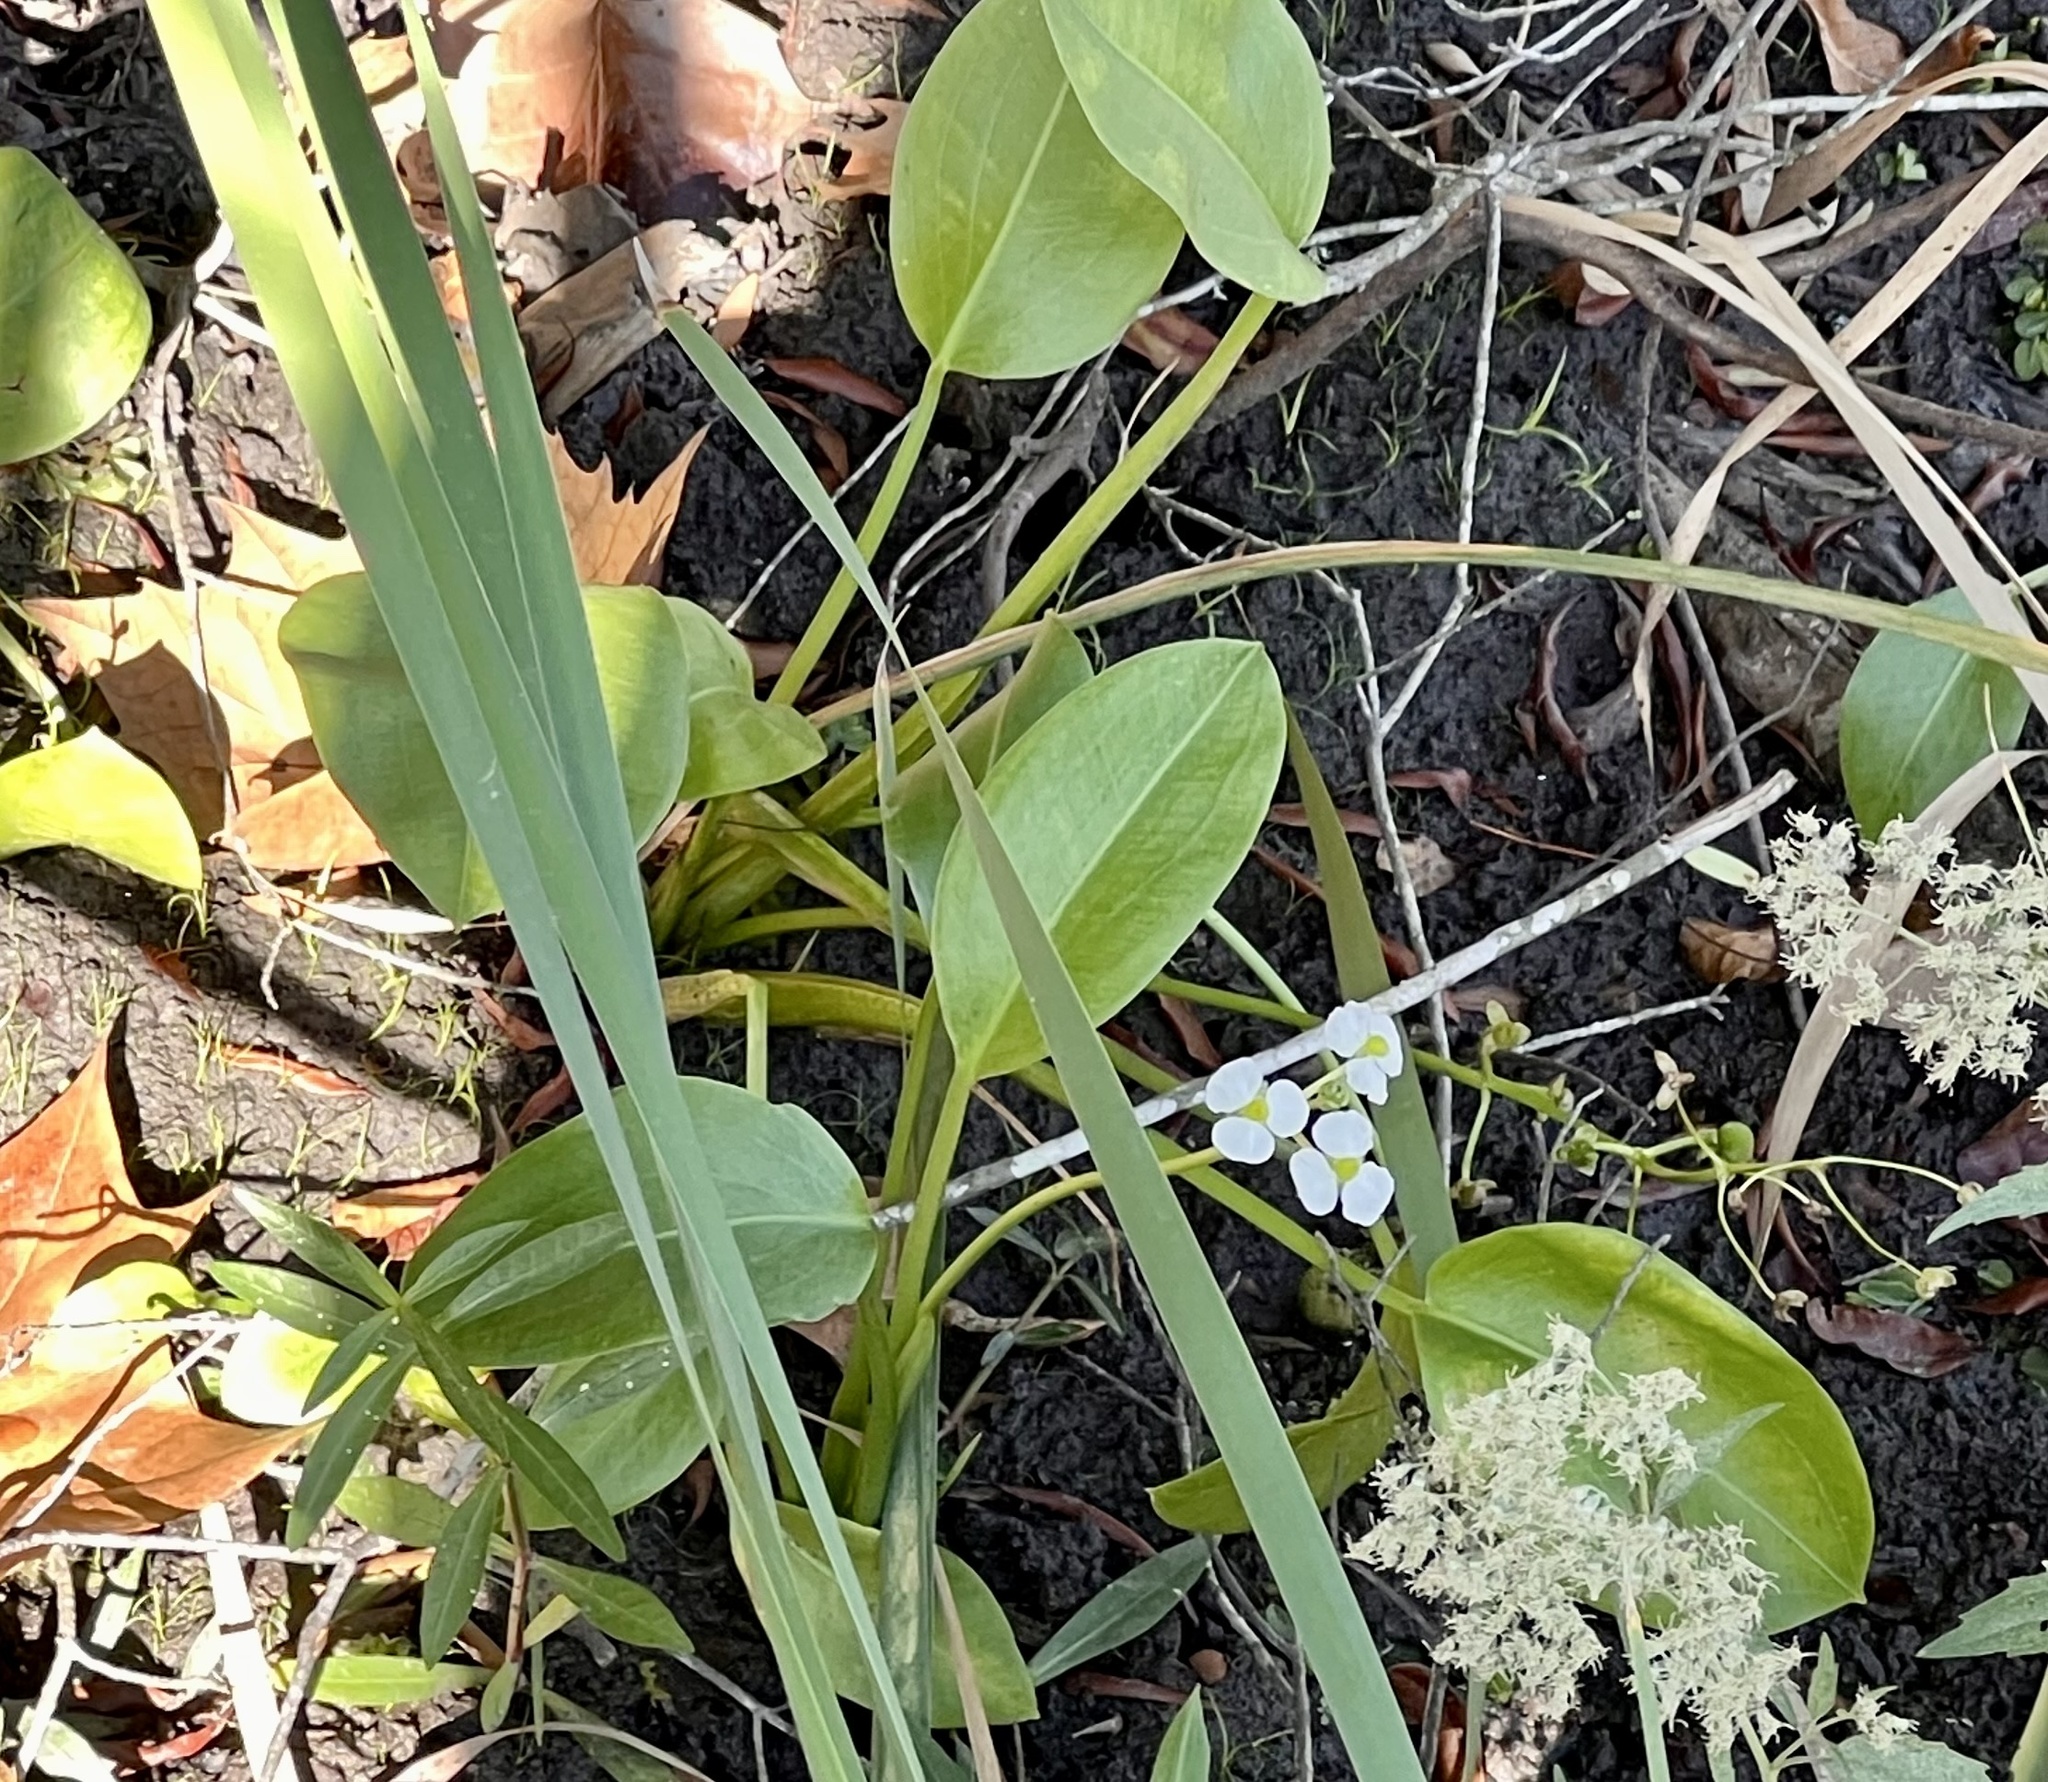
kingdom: Plantae
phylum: Tracheophyta
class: Liliopsida
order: Alismatales
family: Alismataceae
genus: Sagittaria
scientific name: Sagittaria platyphylla
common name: Broad-leaf arrowhead
